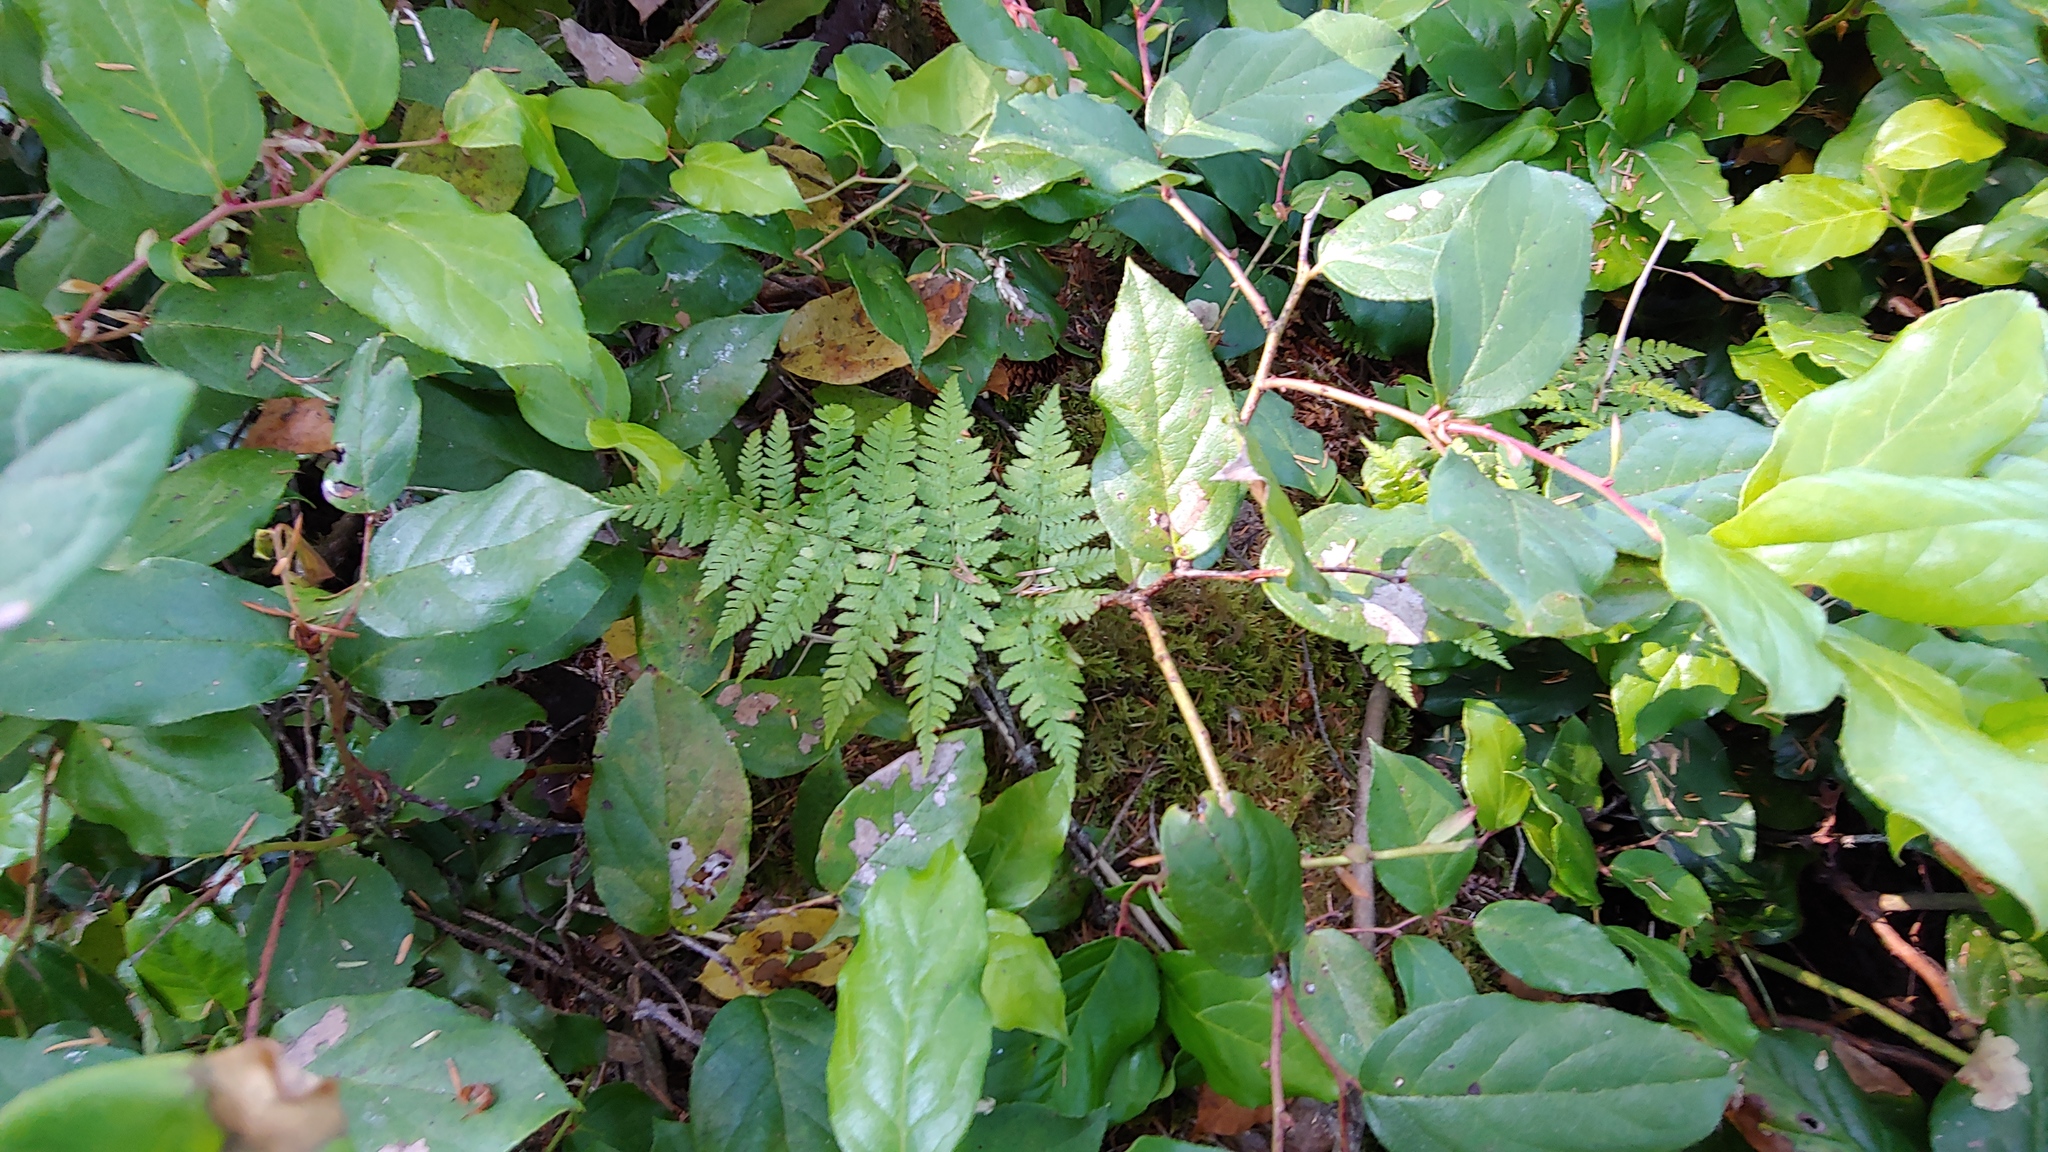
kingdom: Plantae
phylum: Tracheophyta
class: Polypodiopsida
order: Polypodiales
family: Dryopteridaceae
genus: Dryopteris
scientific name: Dryopteris expansa
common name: Northern buckler fern
